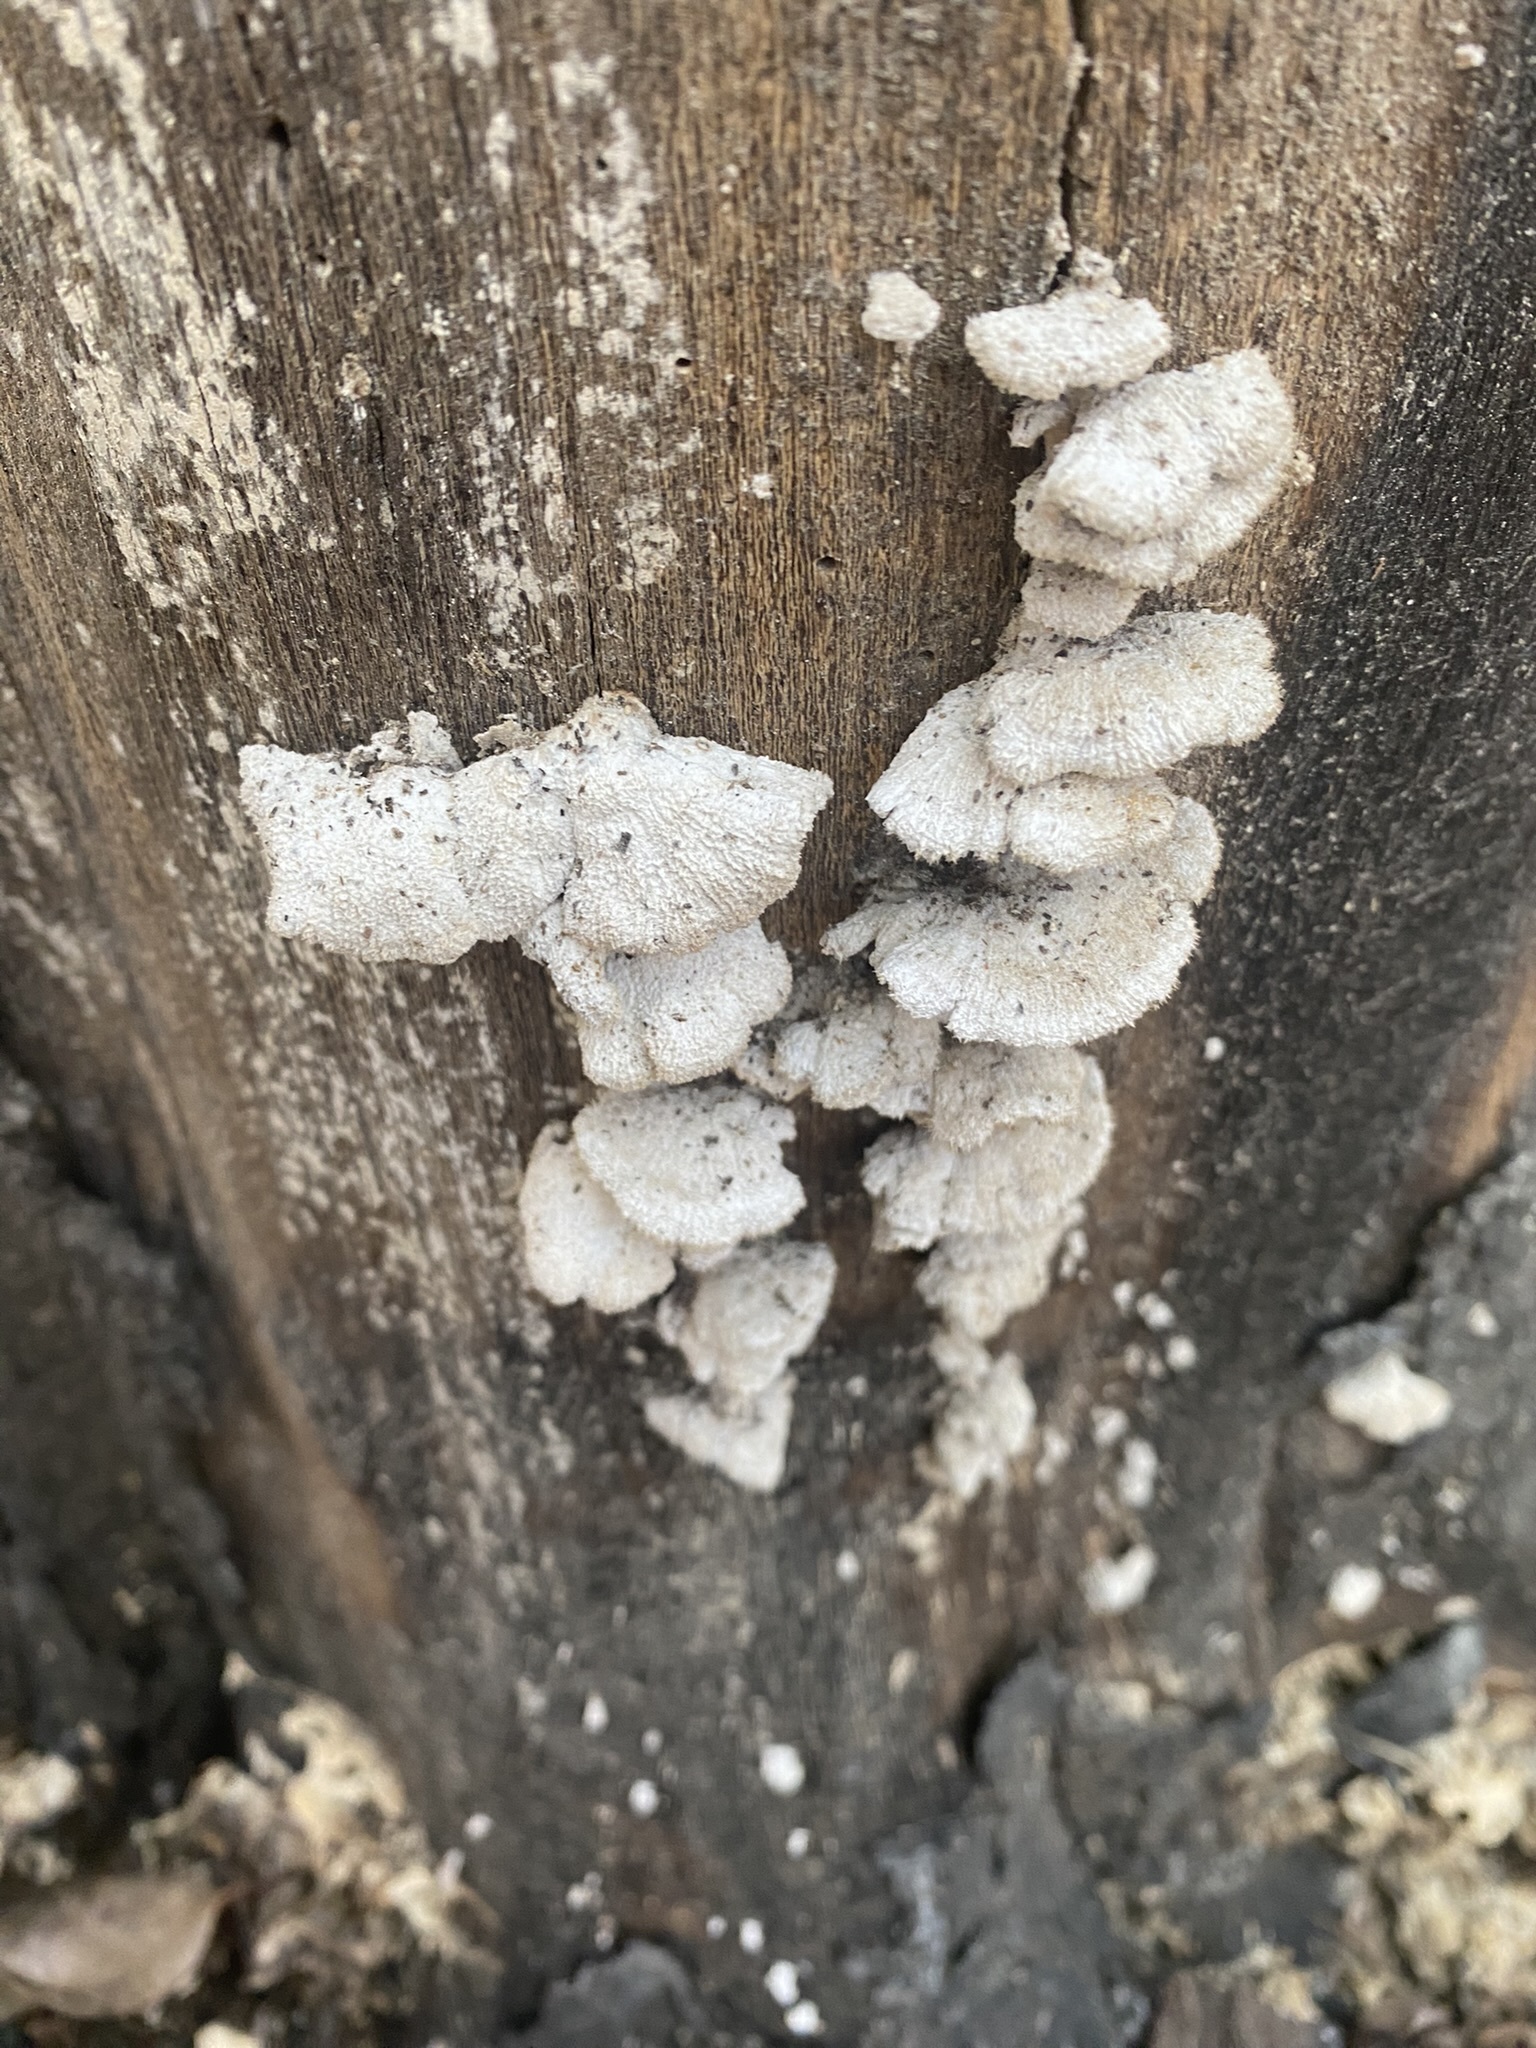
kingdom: Fungi
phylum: Basidiomycota
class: Agaricomycetes
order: Agaricales
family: Schizophyllaceae
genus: Schizophyllum
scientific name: Schizophyllum commune
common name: Common porecrust
